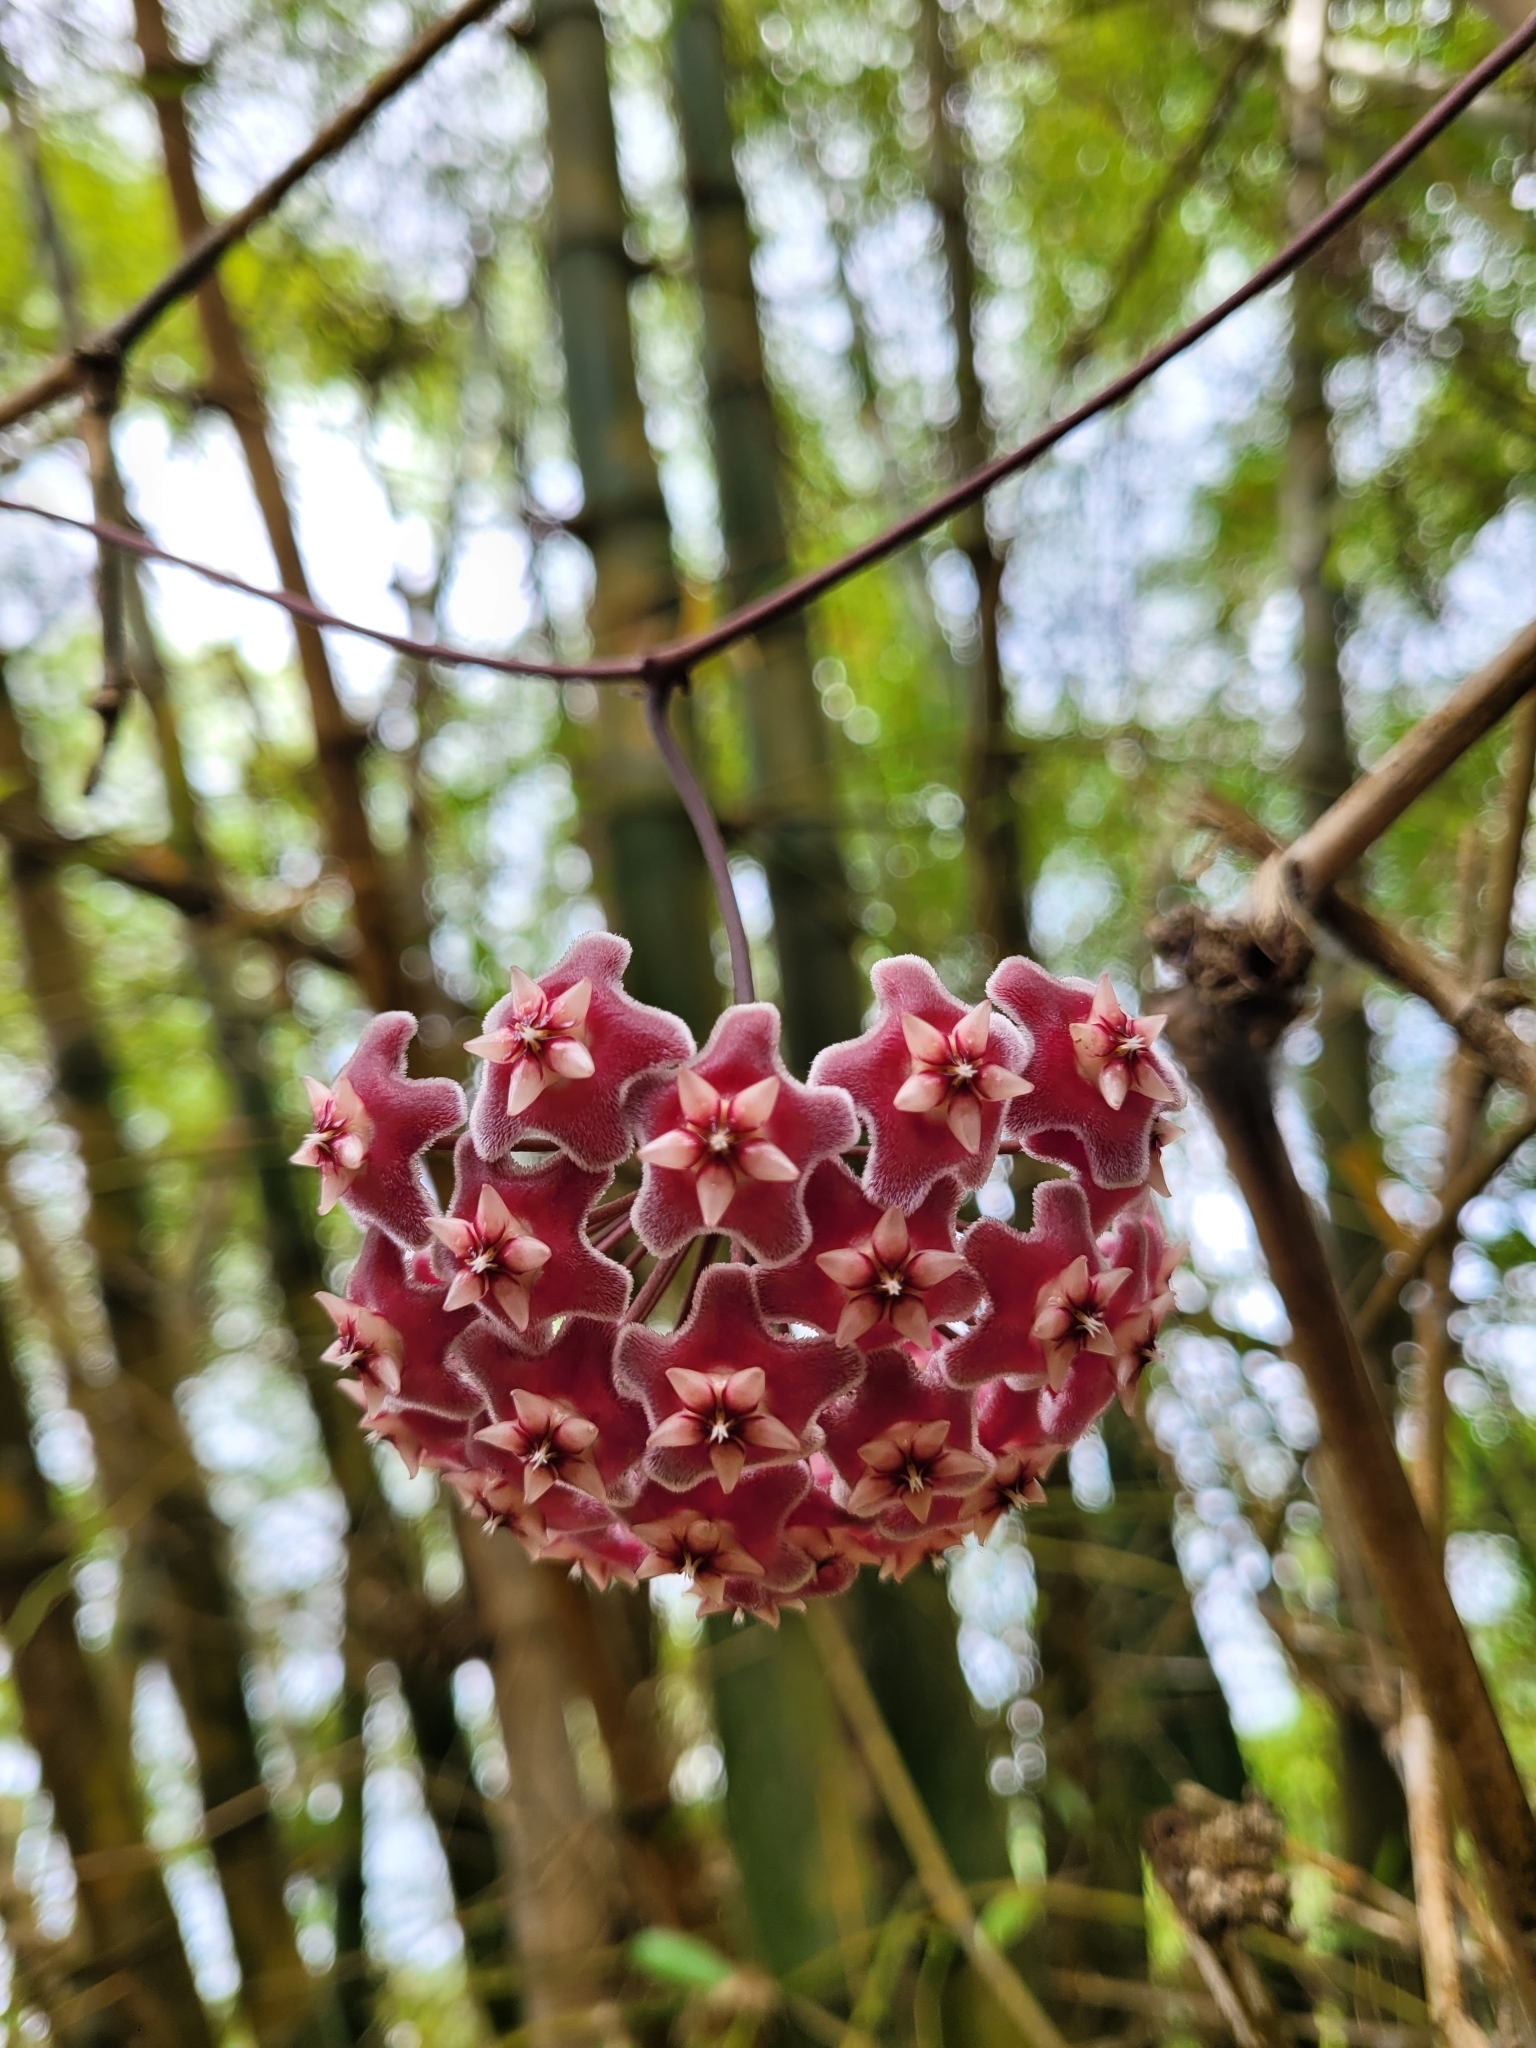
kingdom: Plantae
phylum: Tracheophyta
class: Magnoliopsida
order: Gentianales
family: Apocynaceae
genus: Hoya
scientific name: Hoya pubicalyx
